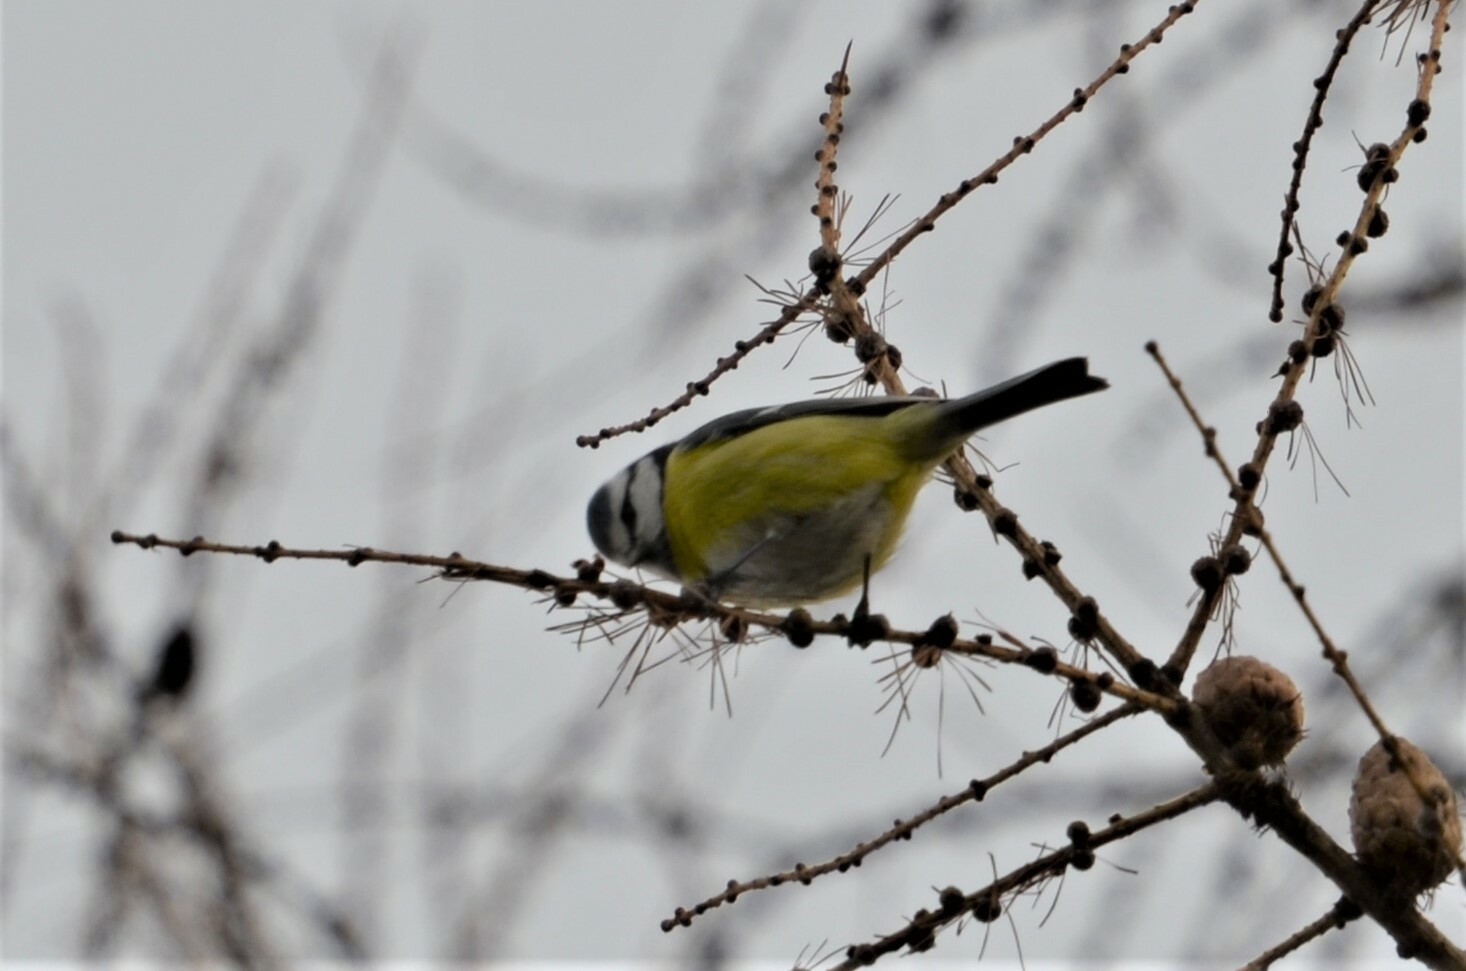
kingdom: Animalia
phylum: Chordata
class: Aves
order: Passeriformes
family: Paridae
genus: Cyanistes
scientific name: Cyanistes caeruleus
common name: Eurasian blue tit
